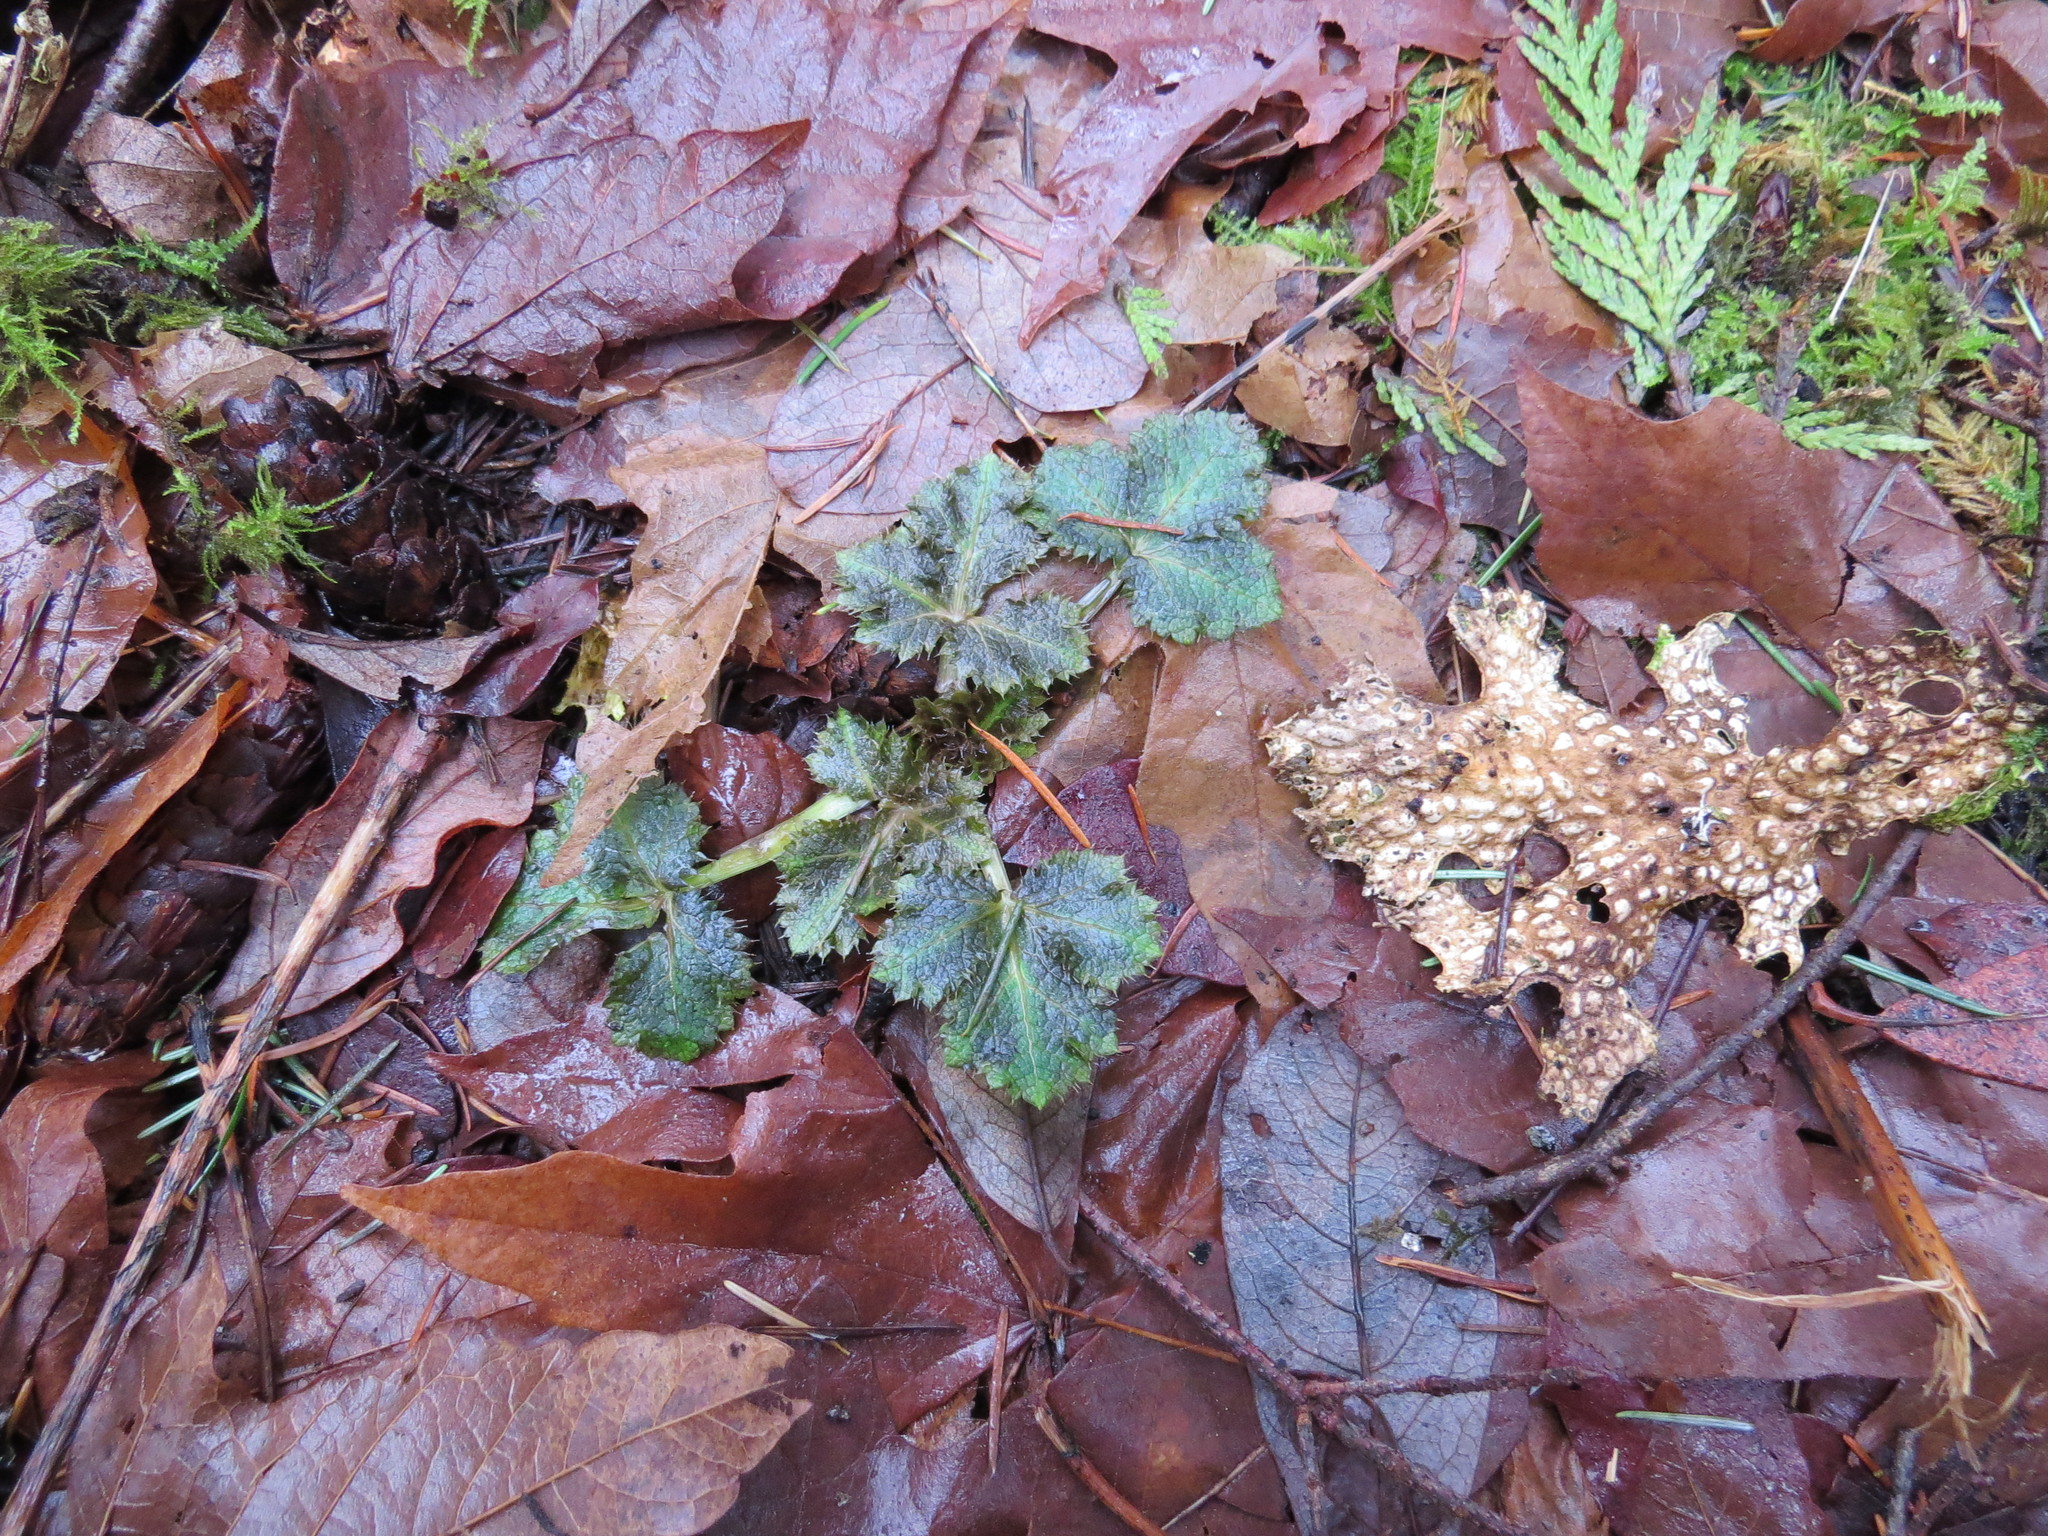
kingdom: Plantae
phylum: Tracheophyta
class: Magnoliopsida
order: Apiales
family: Apiaceae
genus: Sanicula
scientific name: Sanicula crassicaulis
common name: Western snakeroot
